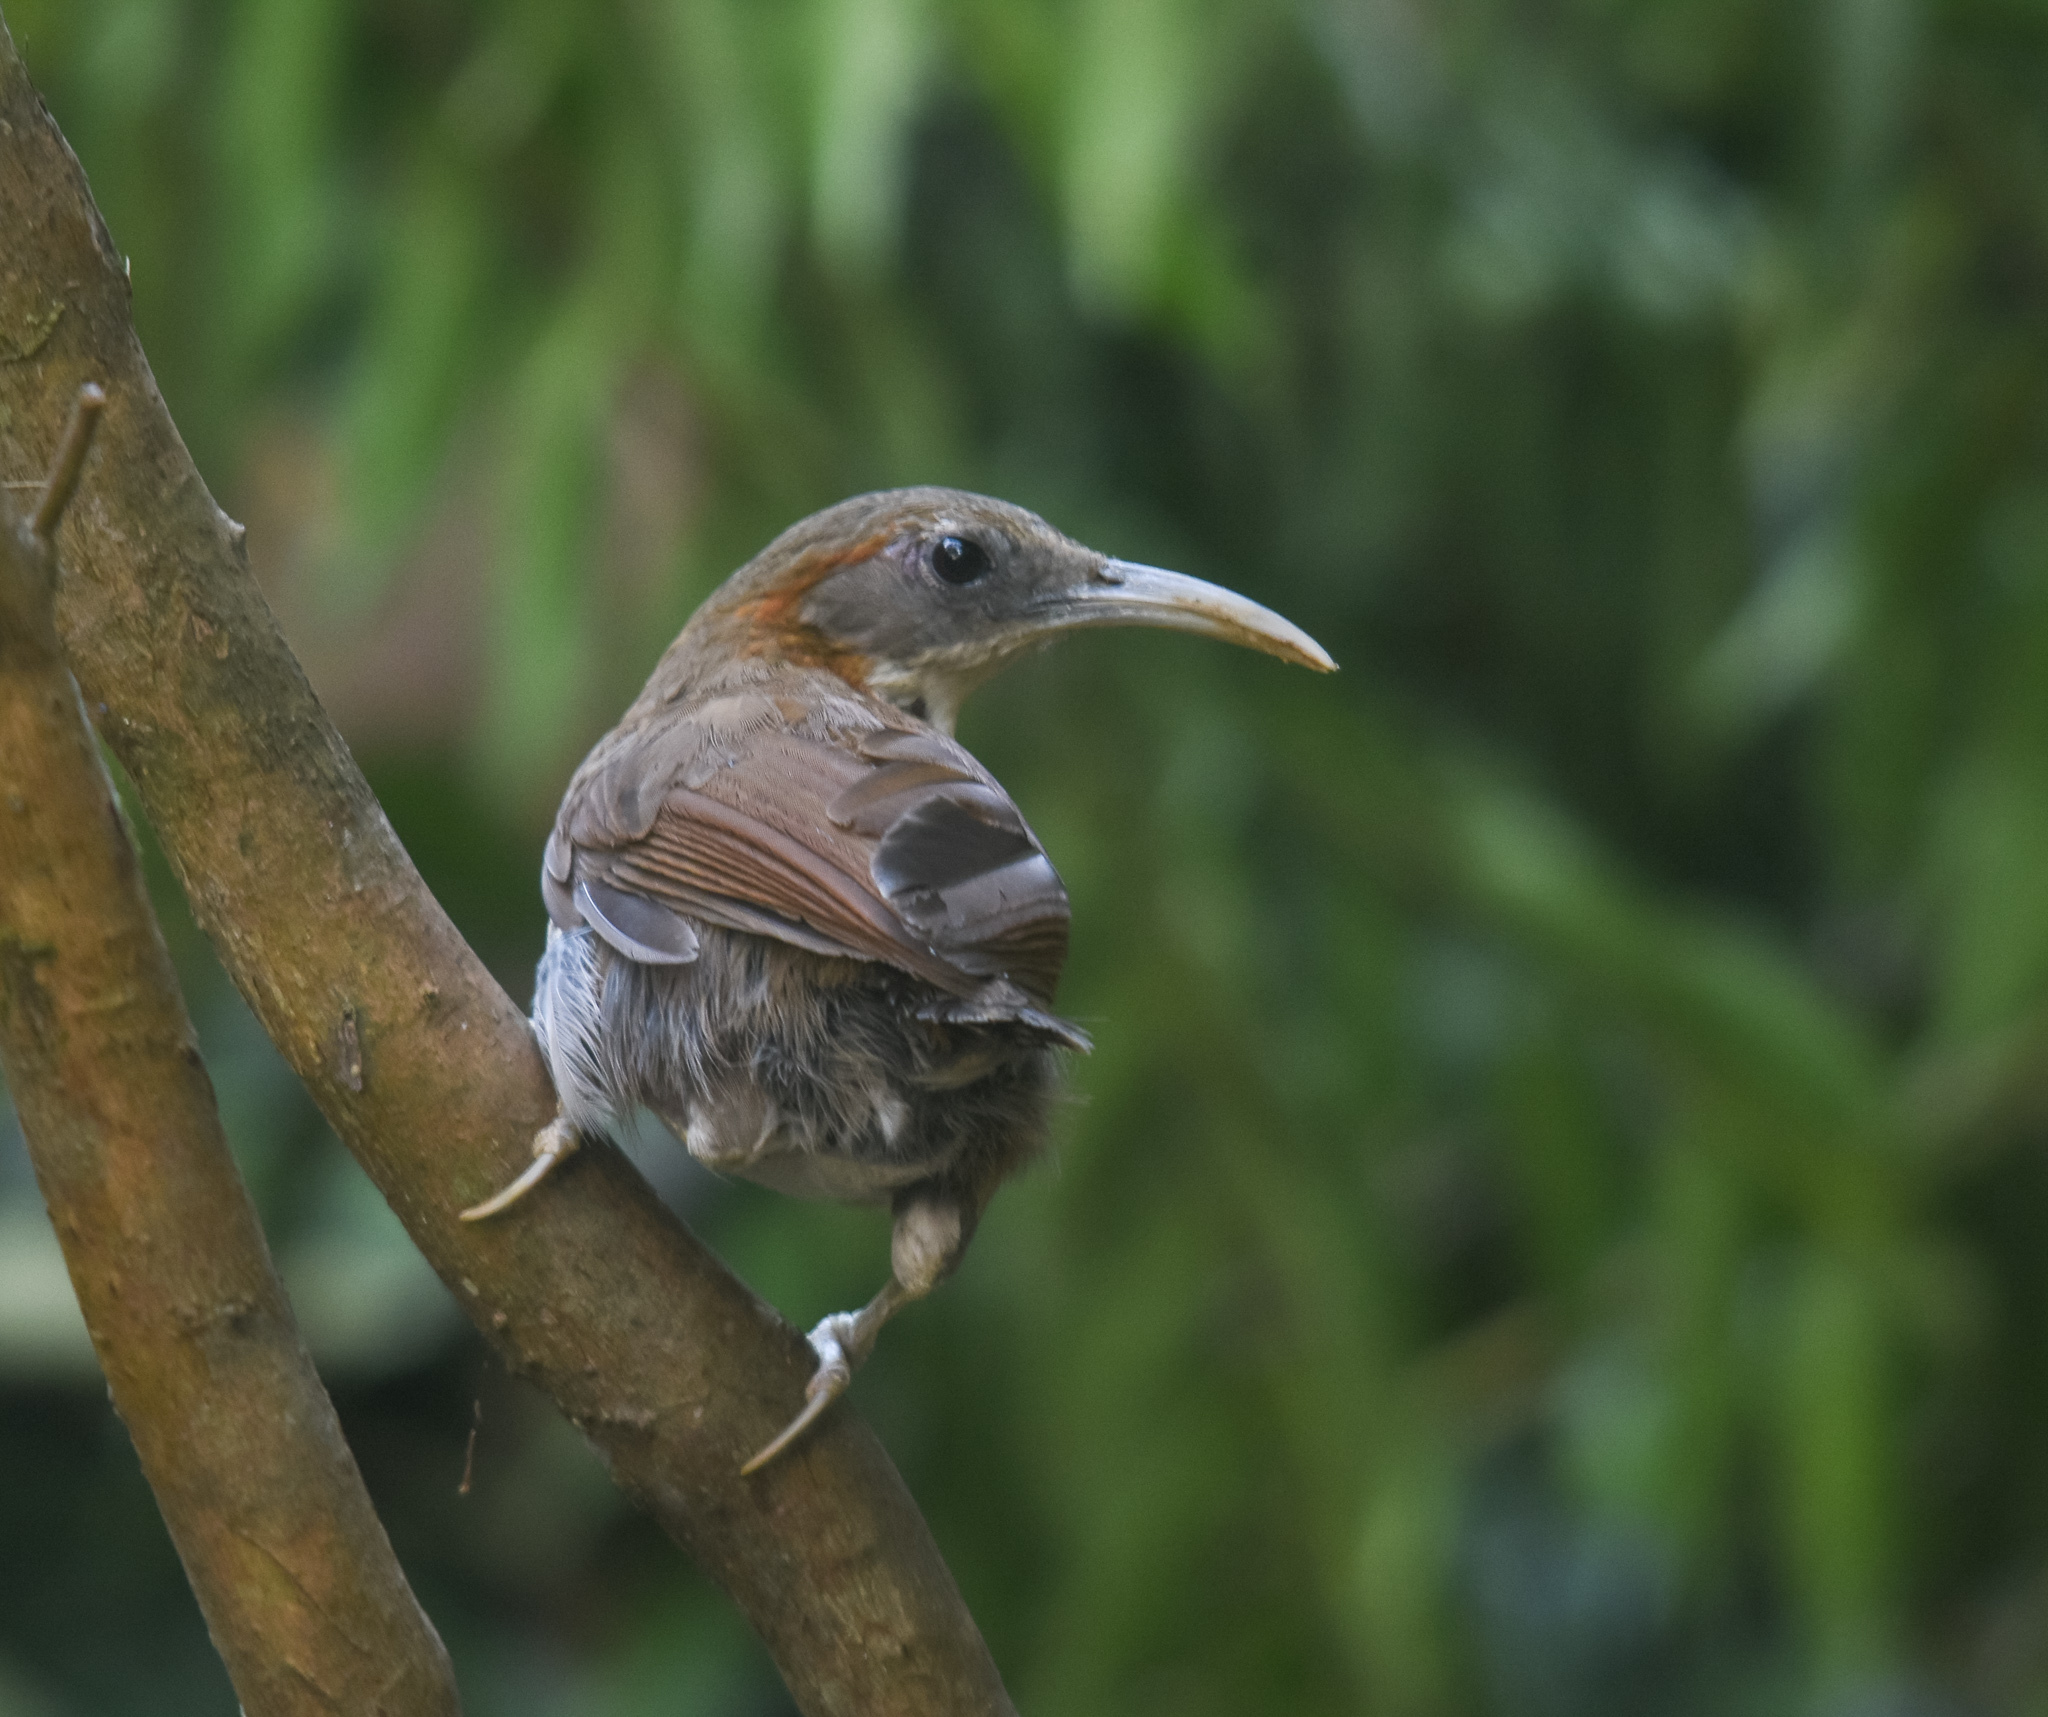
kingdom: Animalia
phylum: Chordata
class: Aves
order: Passeriformes
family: Timaliidae
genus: Pomatorhinus
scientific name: Pomatorhinus hypoleucos
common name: Large scimitar babbler
